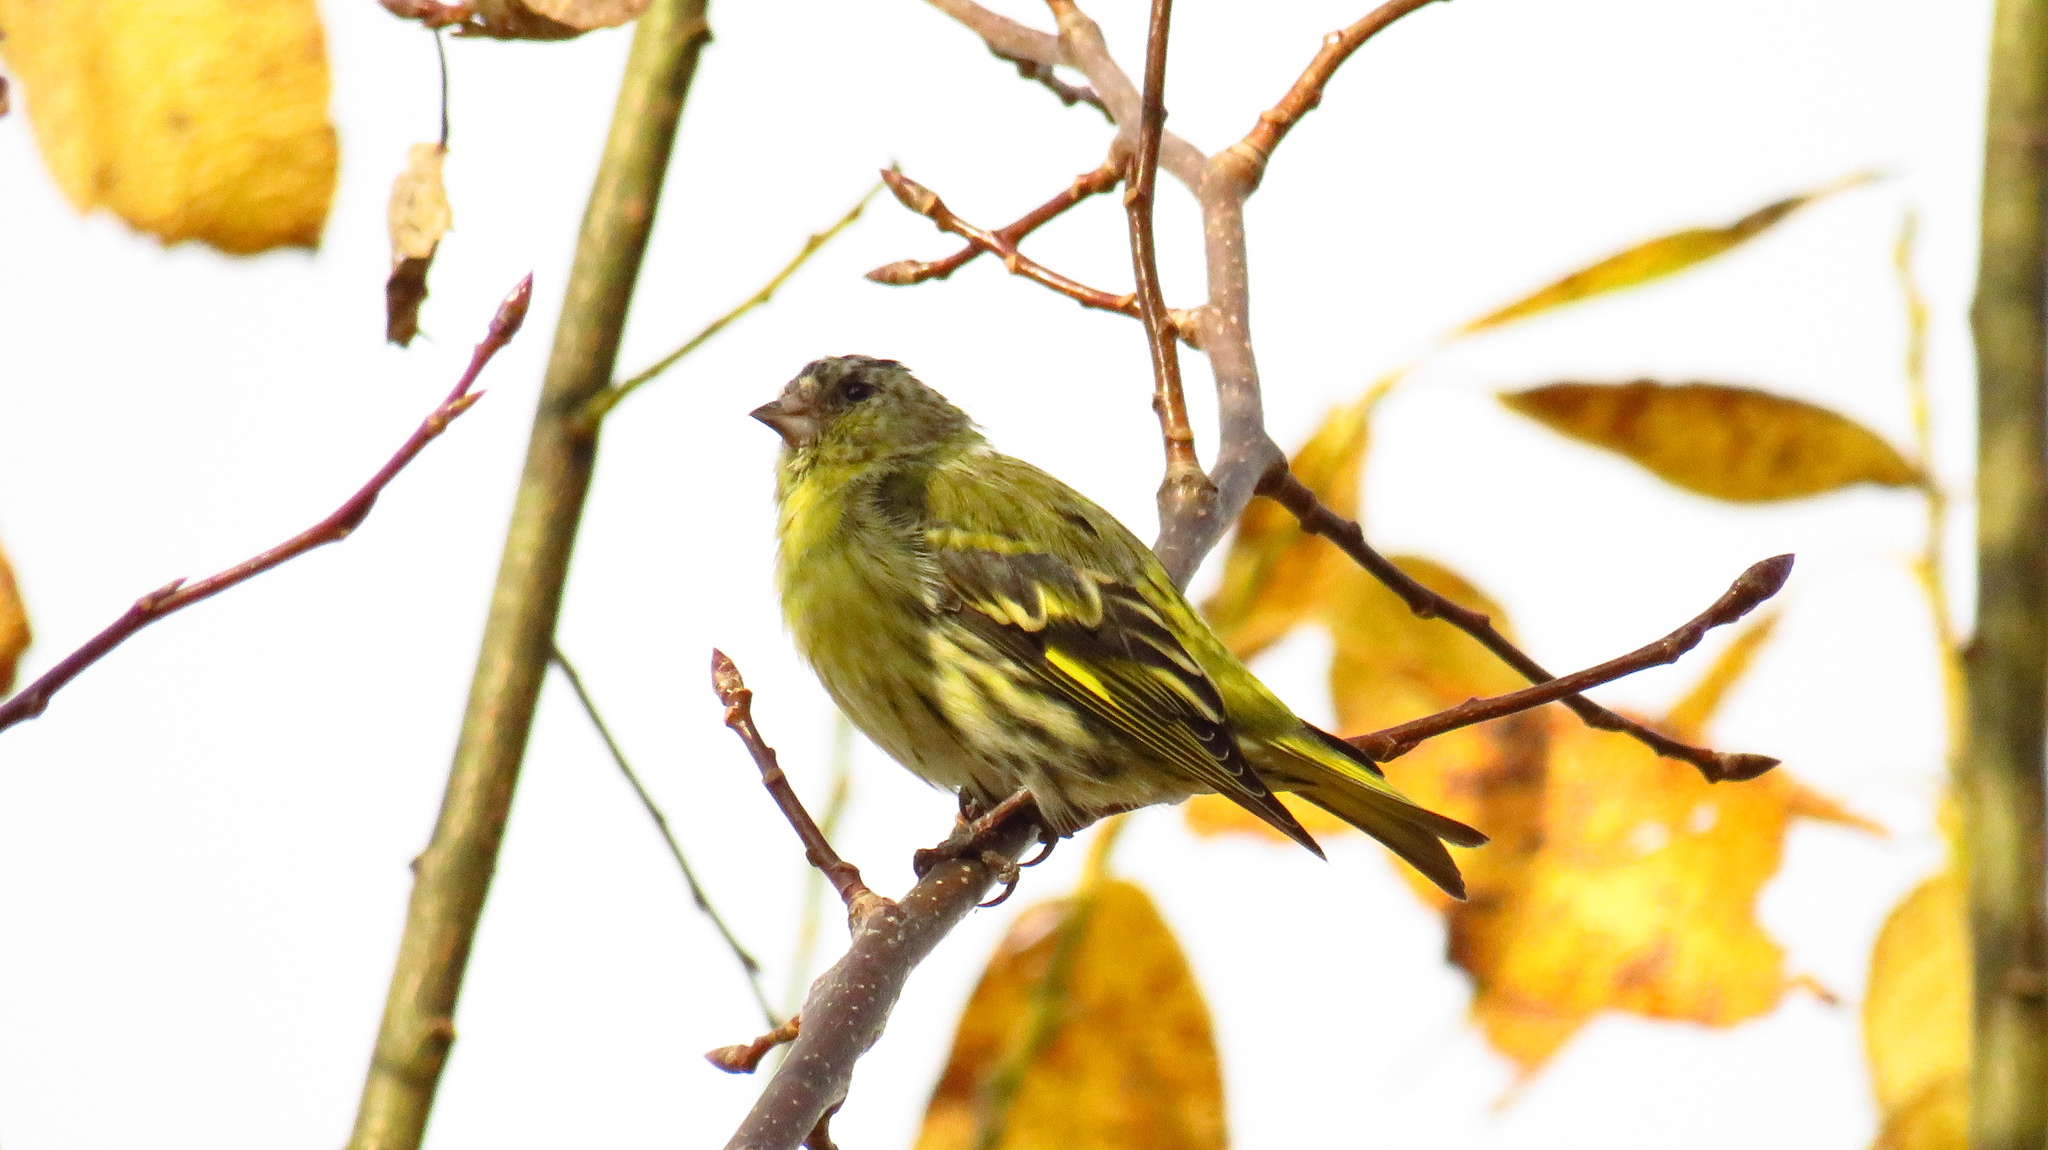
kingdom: Animalia
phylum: Chordata
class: Aves
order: Passeriformes
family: Fringillidae
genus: Spinus
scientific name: Spinus spinus
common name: Eurasian siskin
